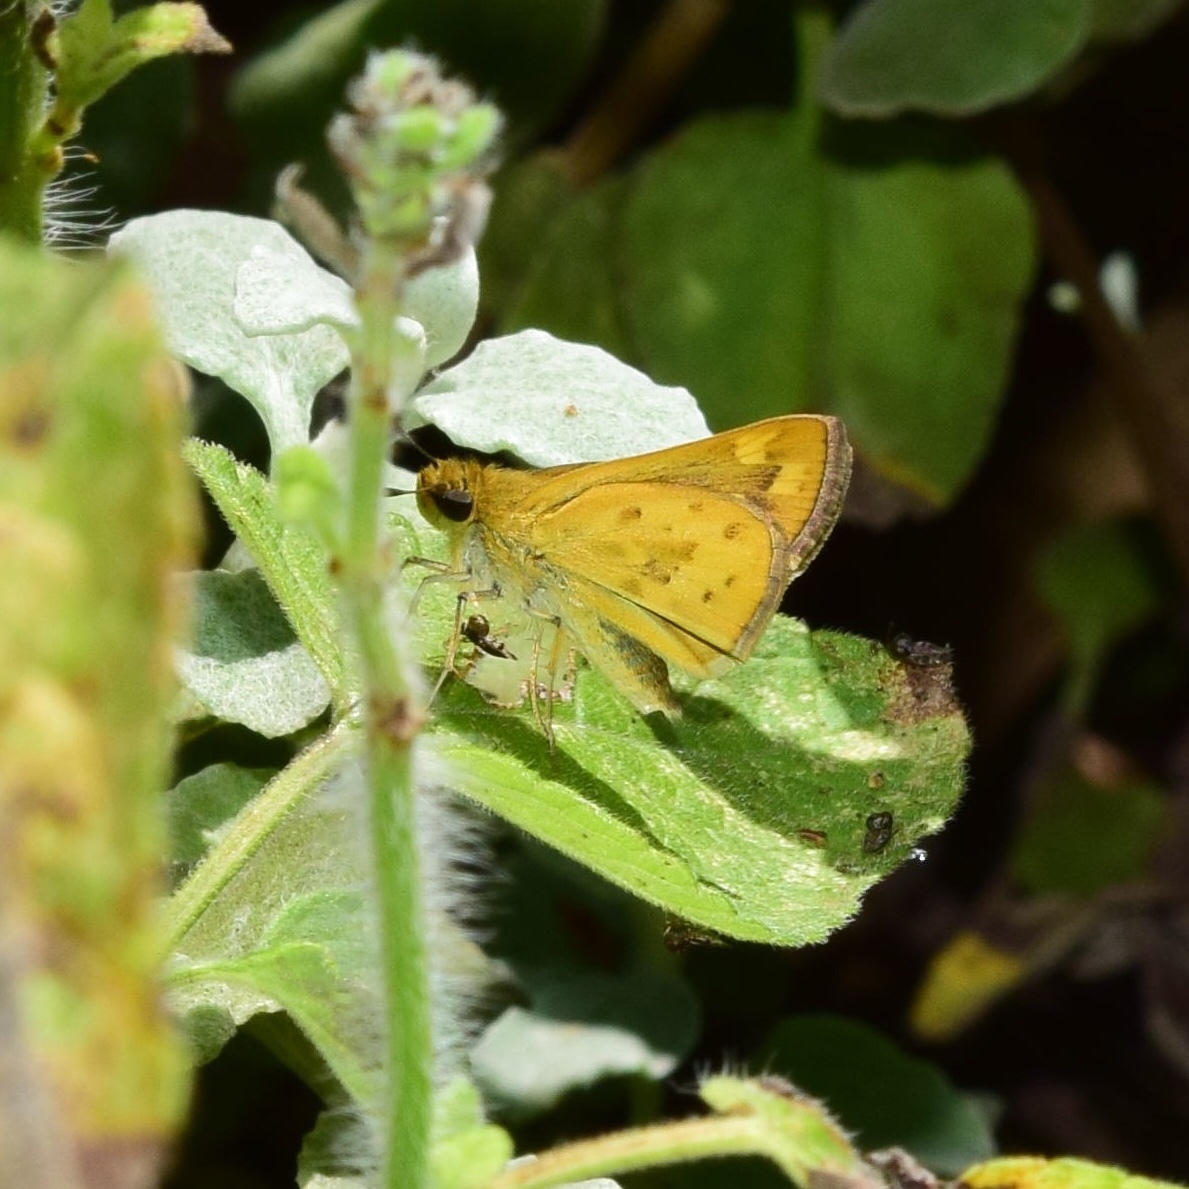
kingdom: Animalia
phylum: Arthropoda
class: Insecta
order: Hymenoptera
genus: Afrogenes
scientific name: Afrogenes
